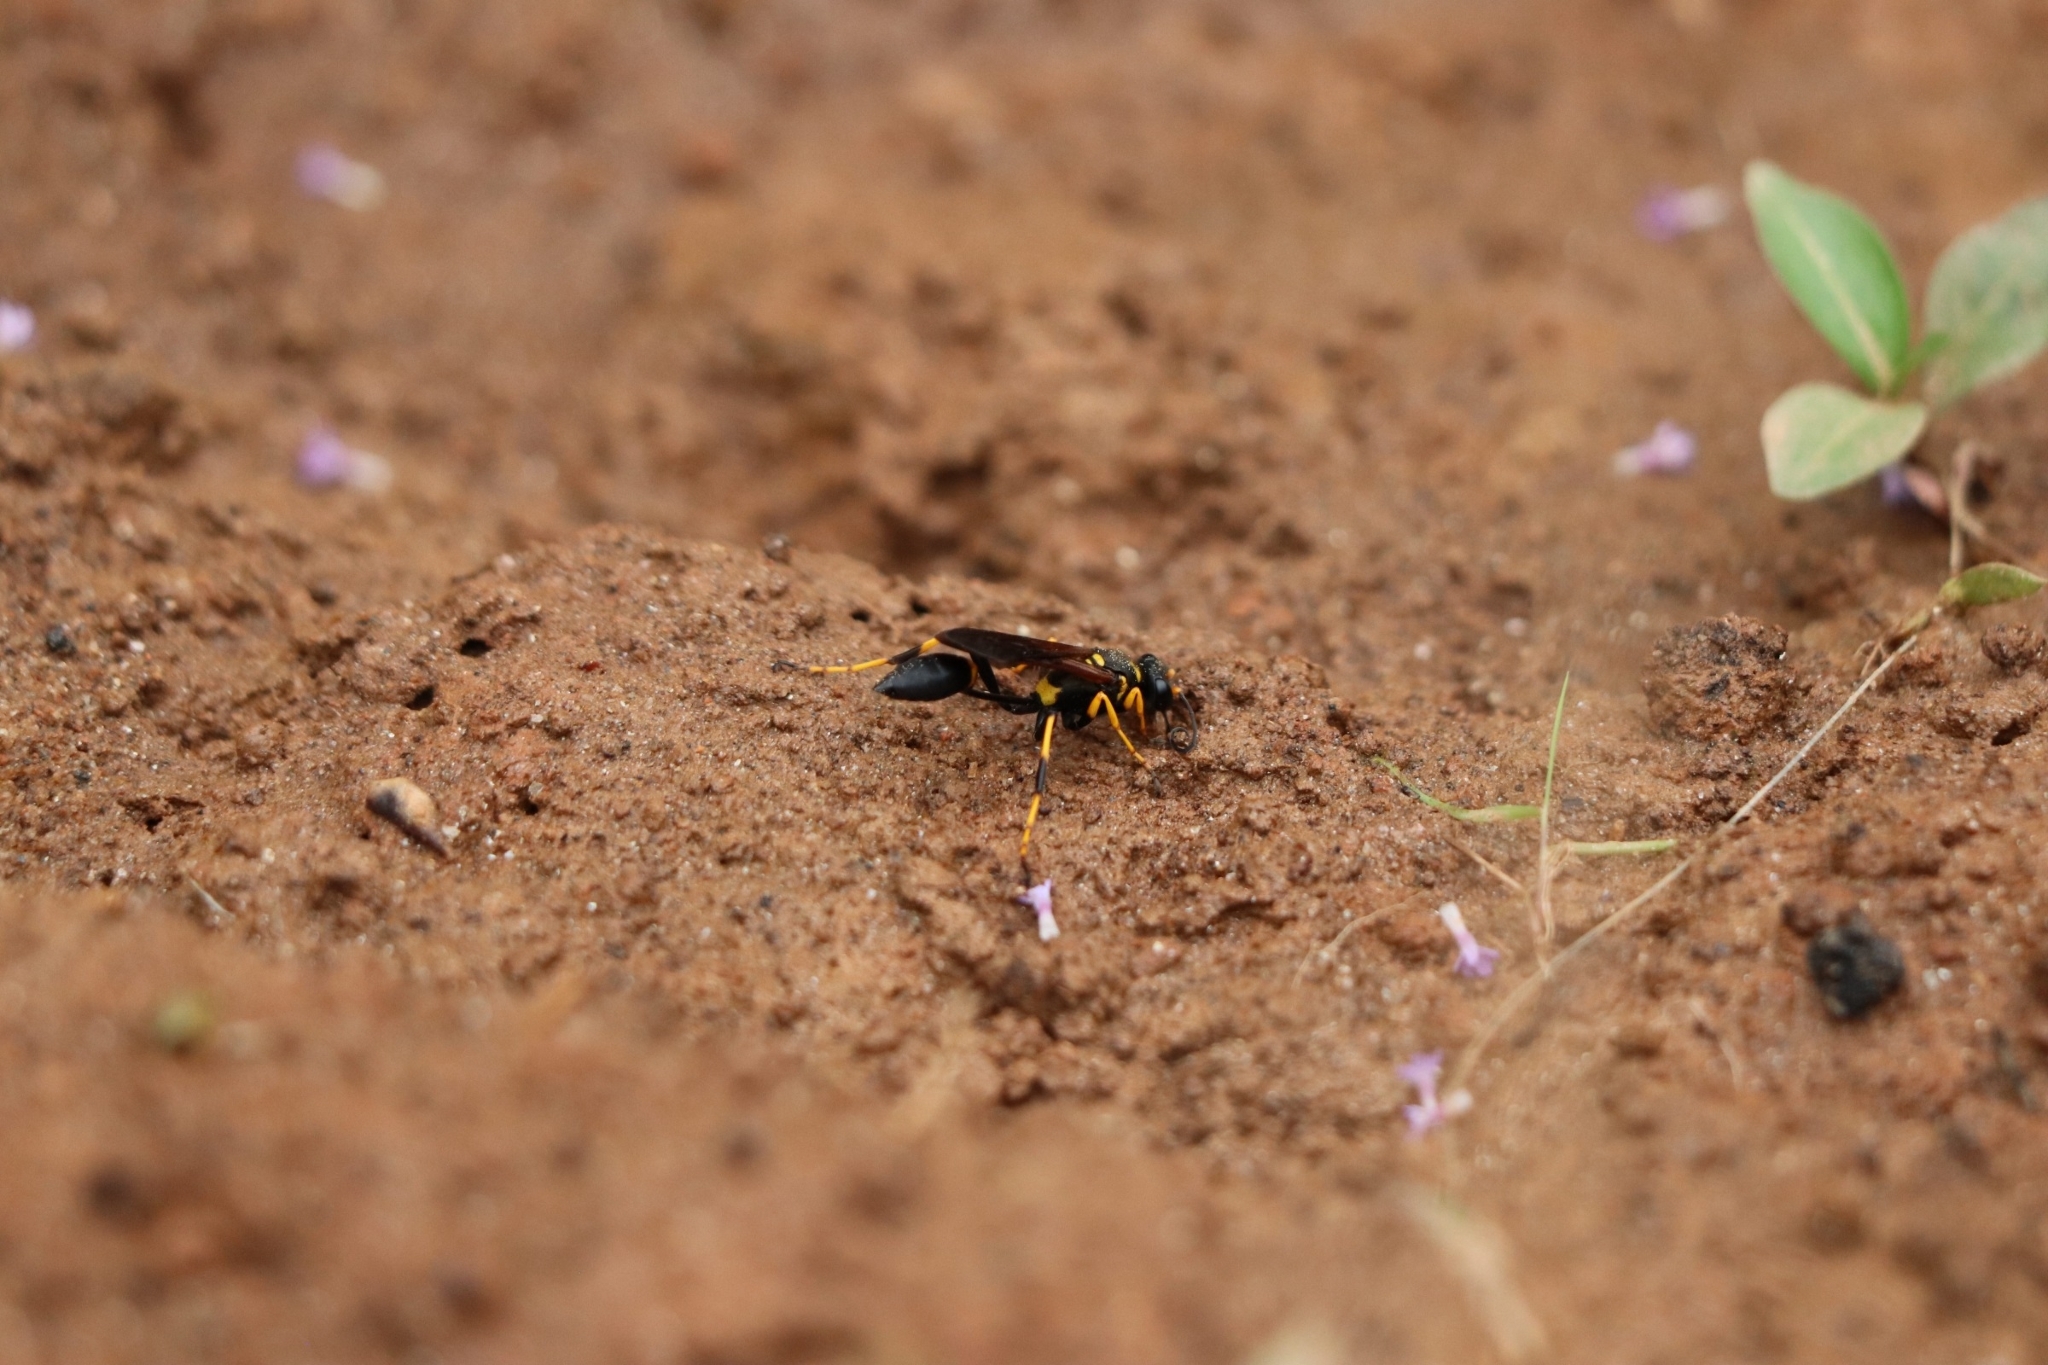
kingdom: Animalia
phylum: Arthropoda
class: Insecta
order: Hymenoptera
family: Sphecidae
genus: Sceliphron
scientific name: Sceliphron caementarium
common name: Mud dauber
